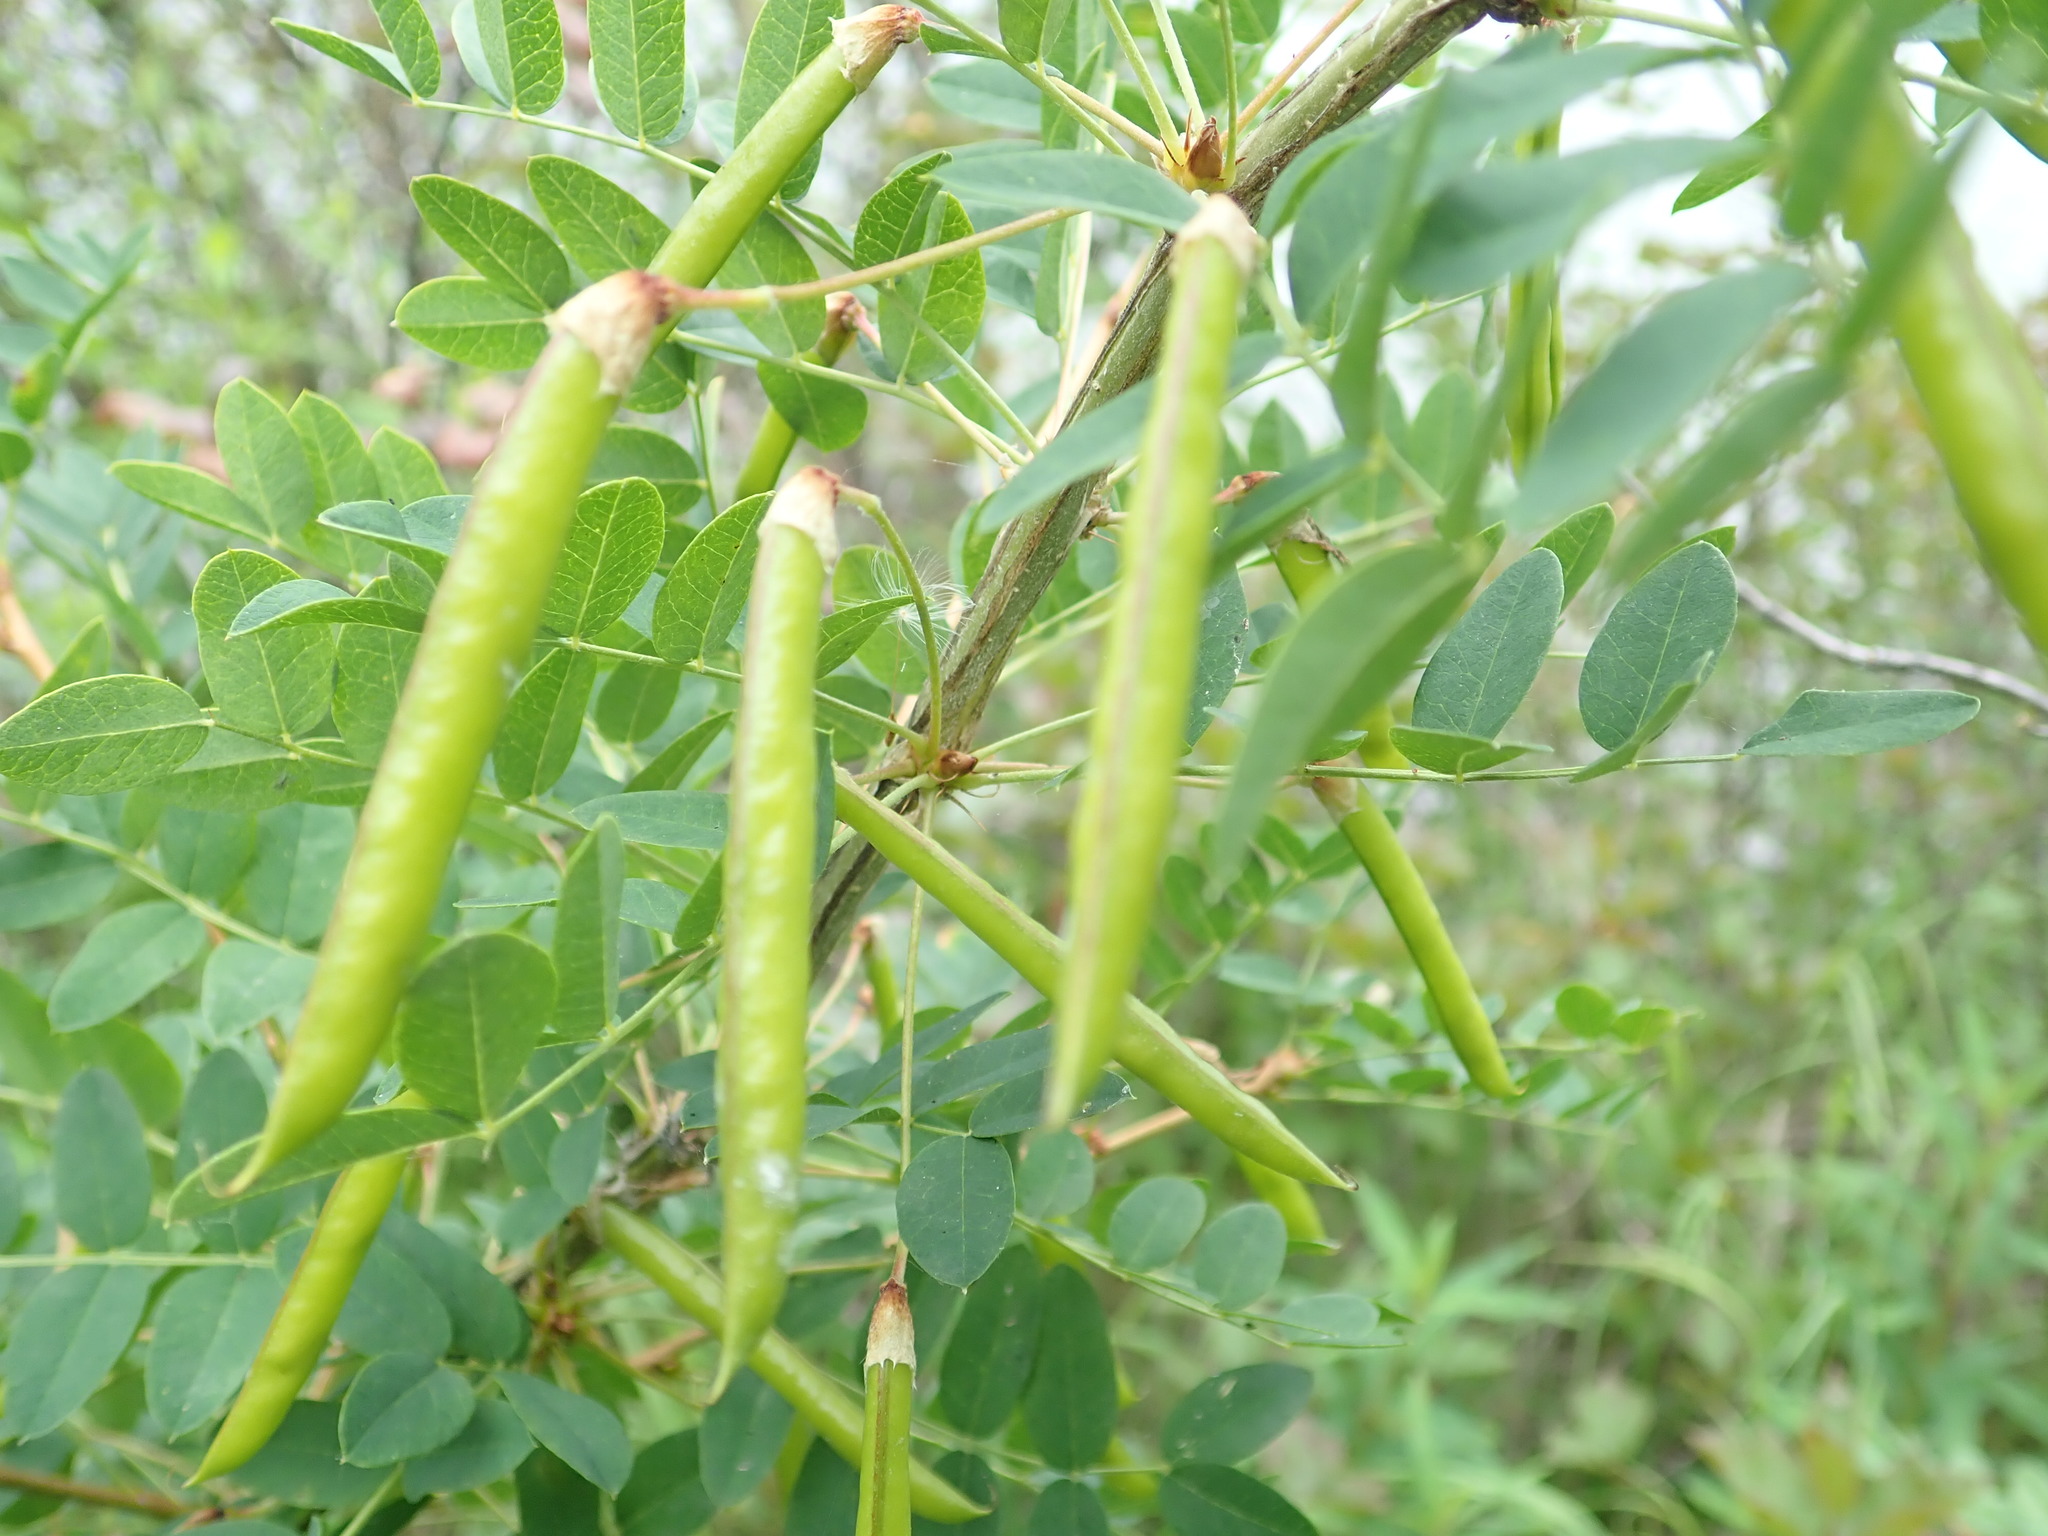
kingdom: Plantae
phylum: Tracheophyta
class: Magnoliopsida
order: Fabales
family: Fabaceae
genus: Caragana
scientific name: Caragana arborescens
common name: Siberian peashrub
